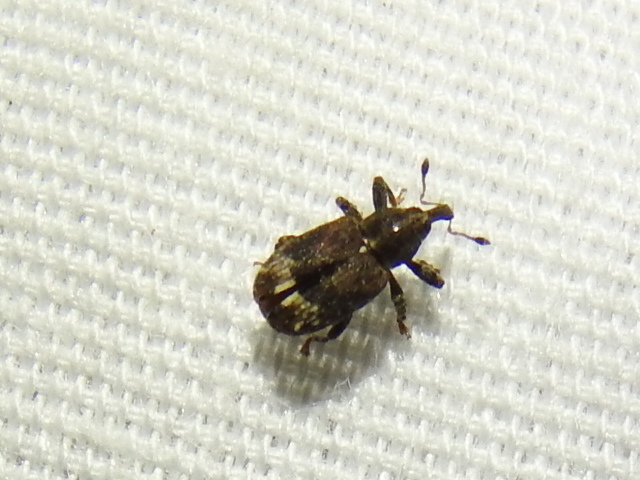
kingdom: Animalia
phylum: Arthropoda
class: Insecta
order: Coleoptera
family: Curculionidae
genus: Plocetes
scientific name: Plocetes ulmi
